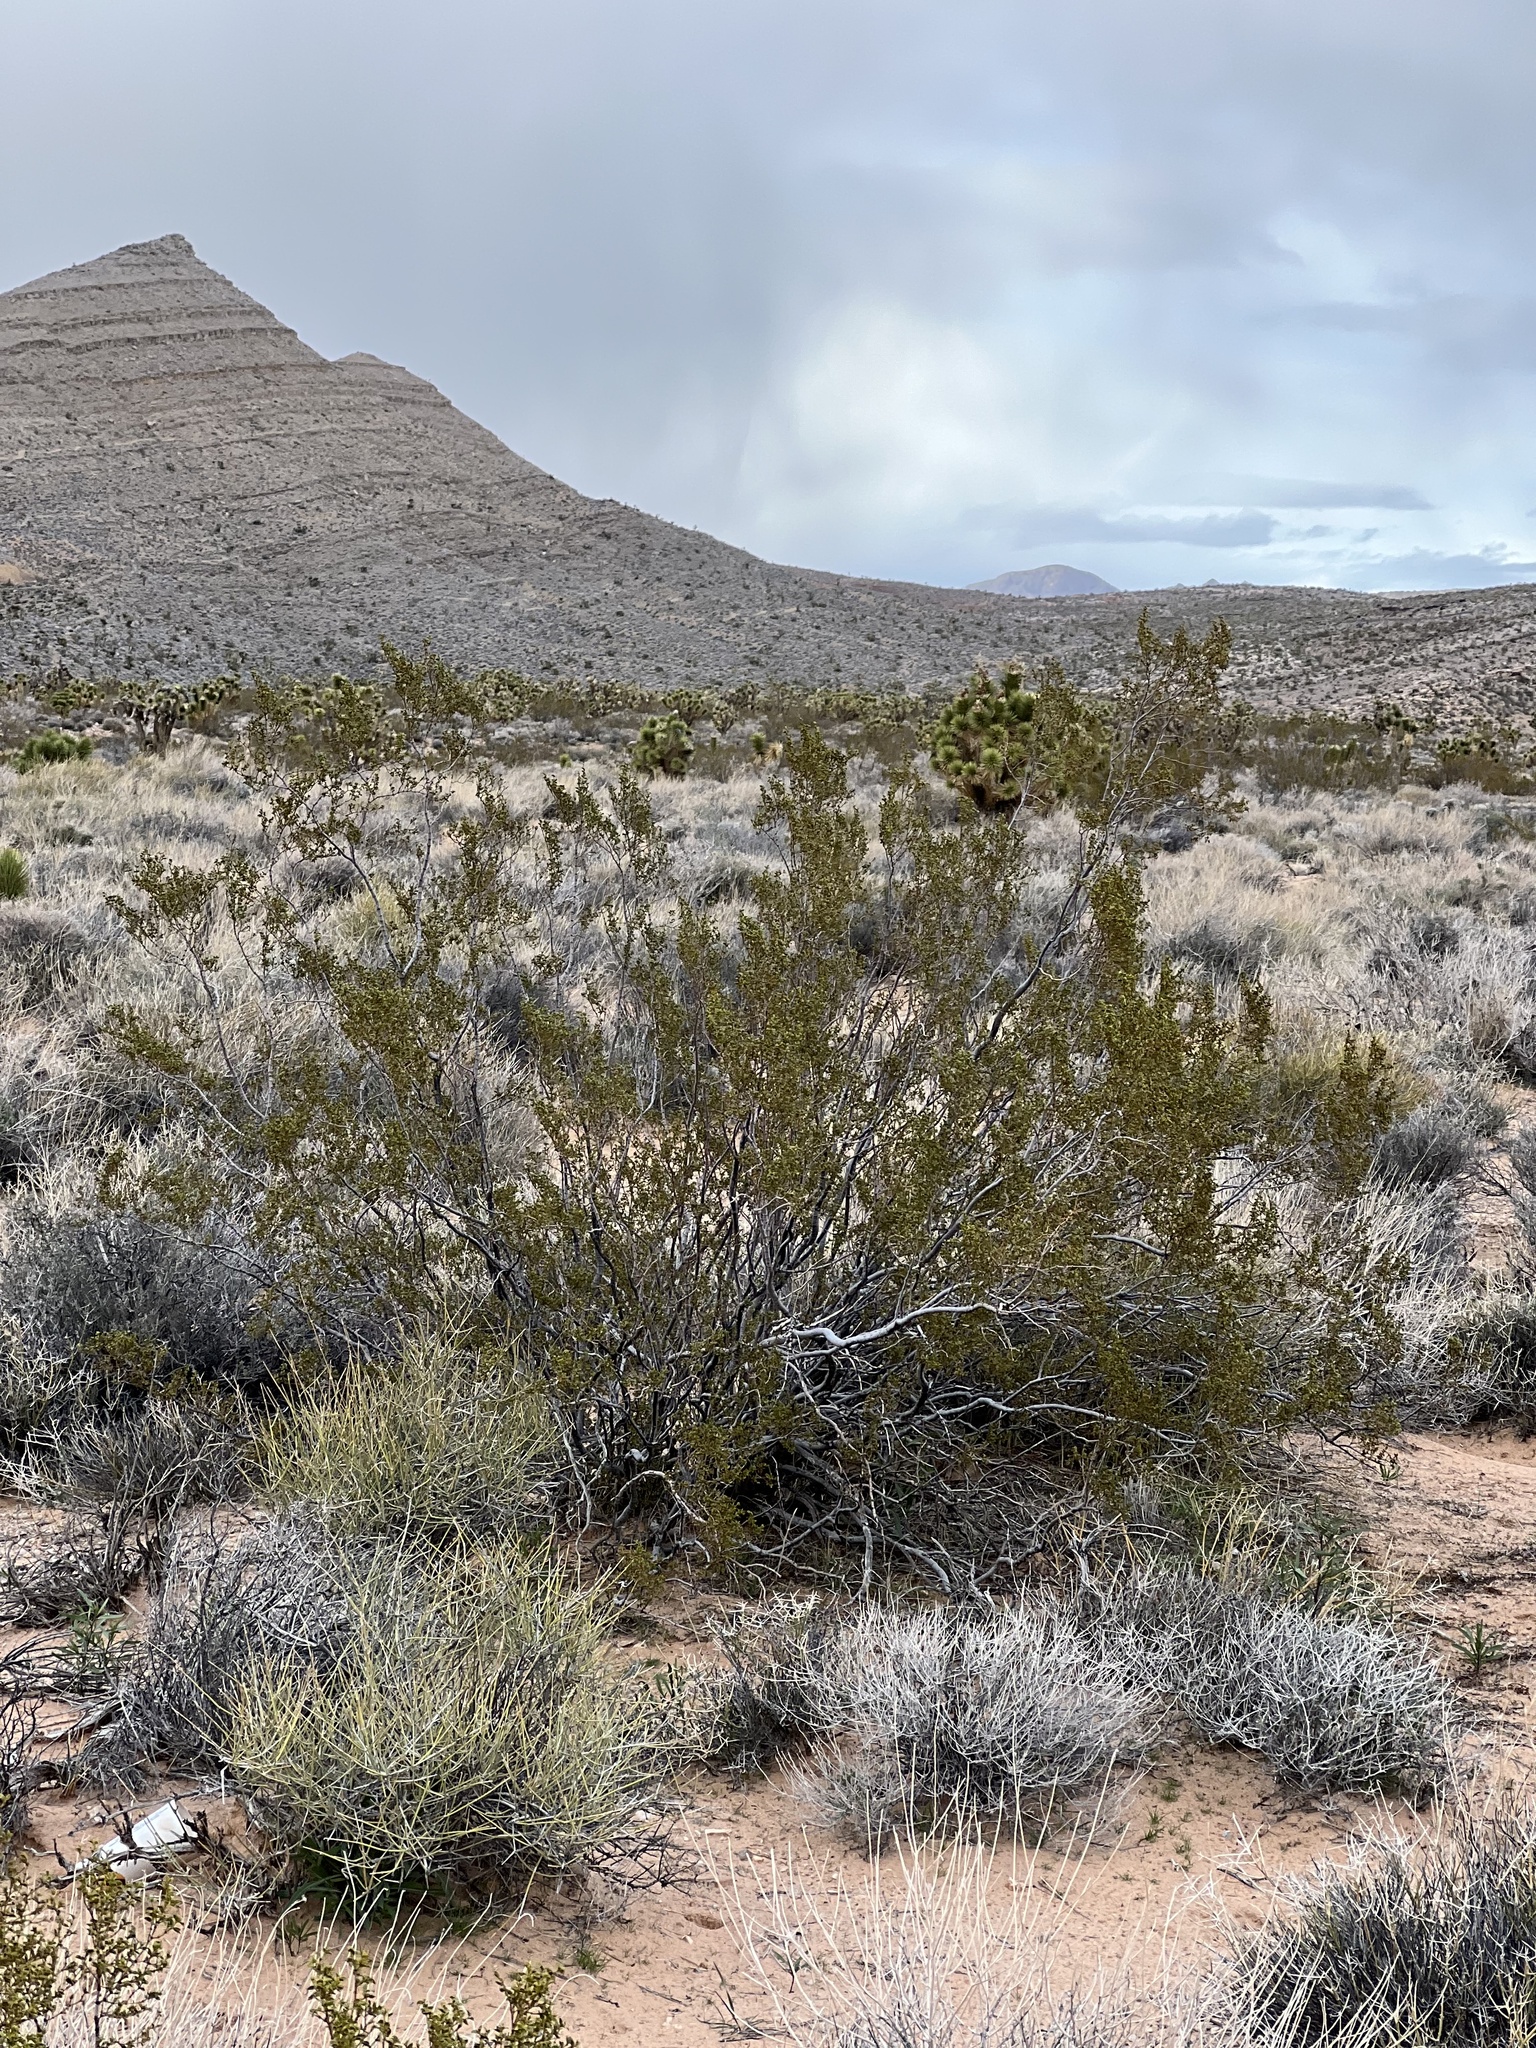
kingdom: Plantae
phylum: Tracheophyta
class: Magnoliopsida
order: Zygophyllales
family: Zygophyllaceae
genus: Larrea
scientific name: Larrea tridentata
